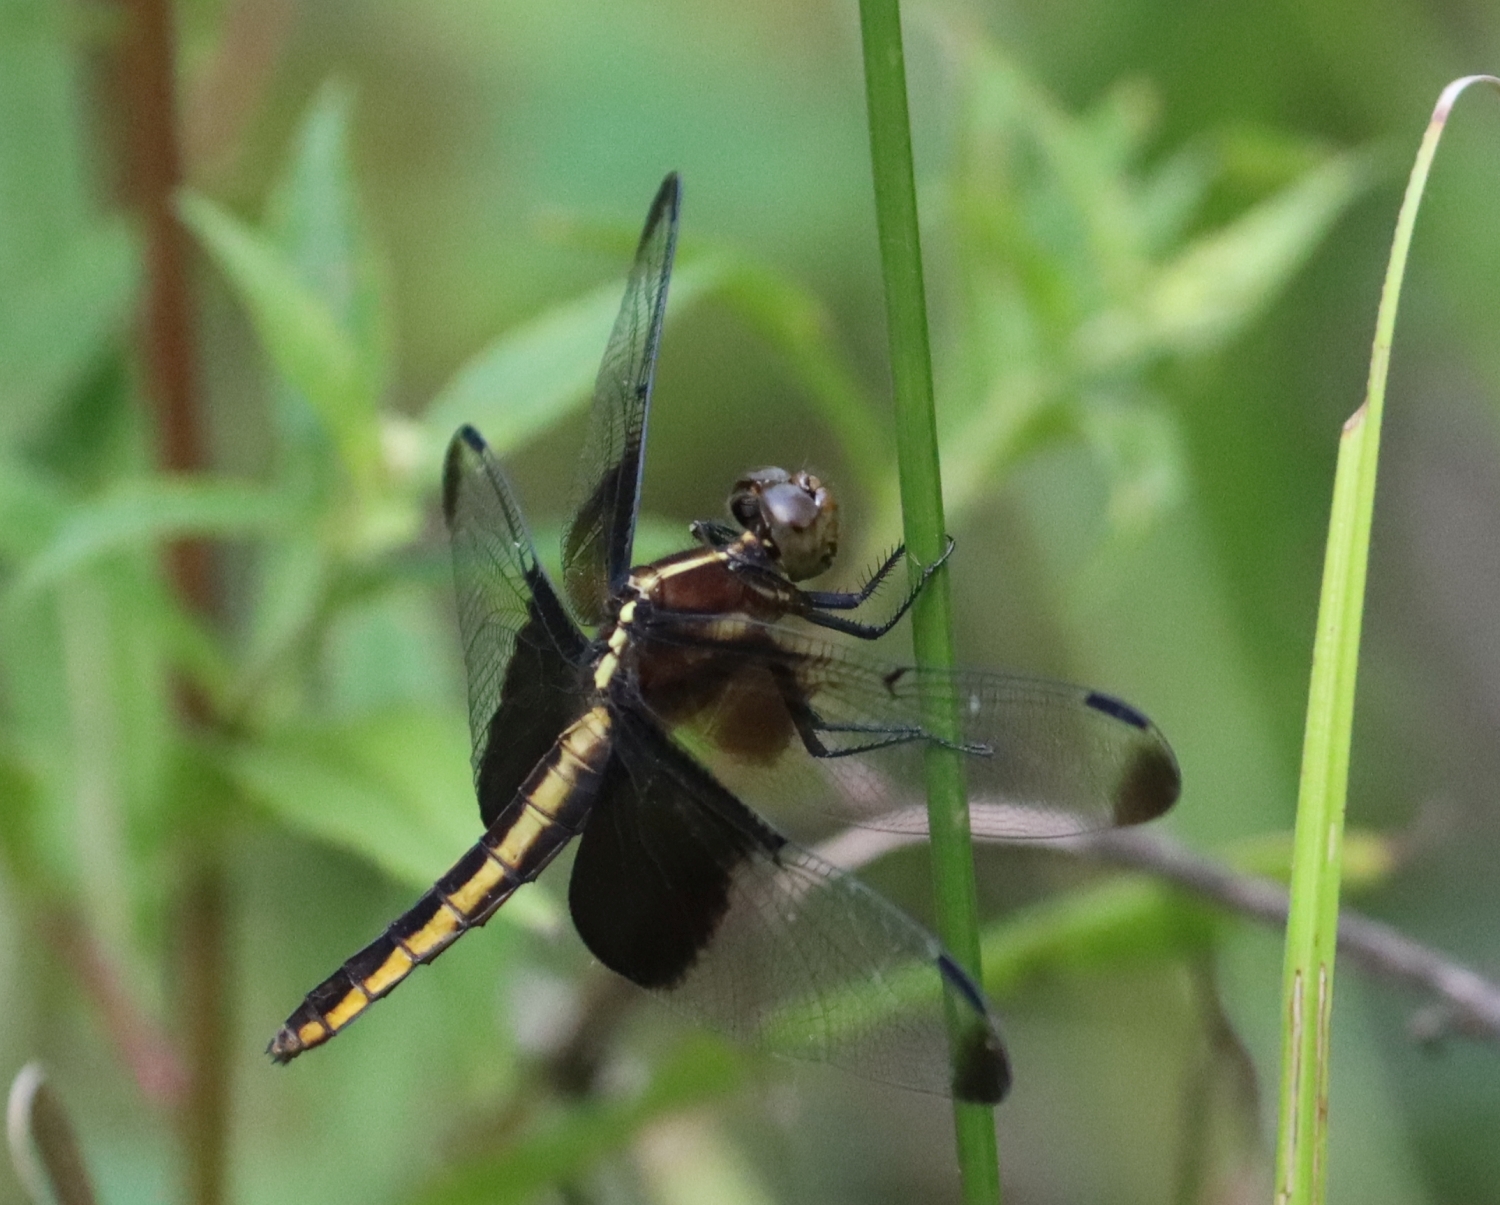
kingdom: Animalia
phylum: Arthropoda
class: Insecta
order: Odonata
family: Libellulidae
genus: Libellula
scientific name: Libellula luctuosa
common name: Widow skimmer
